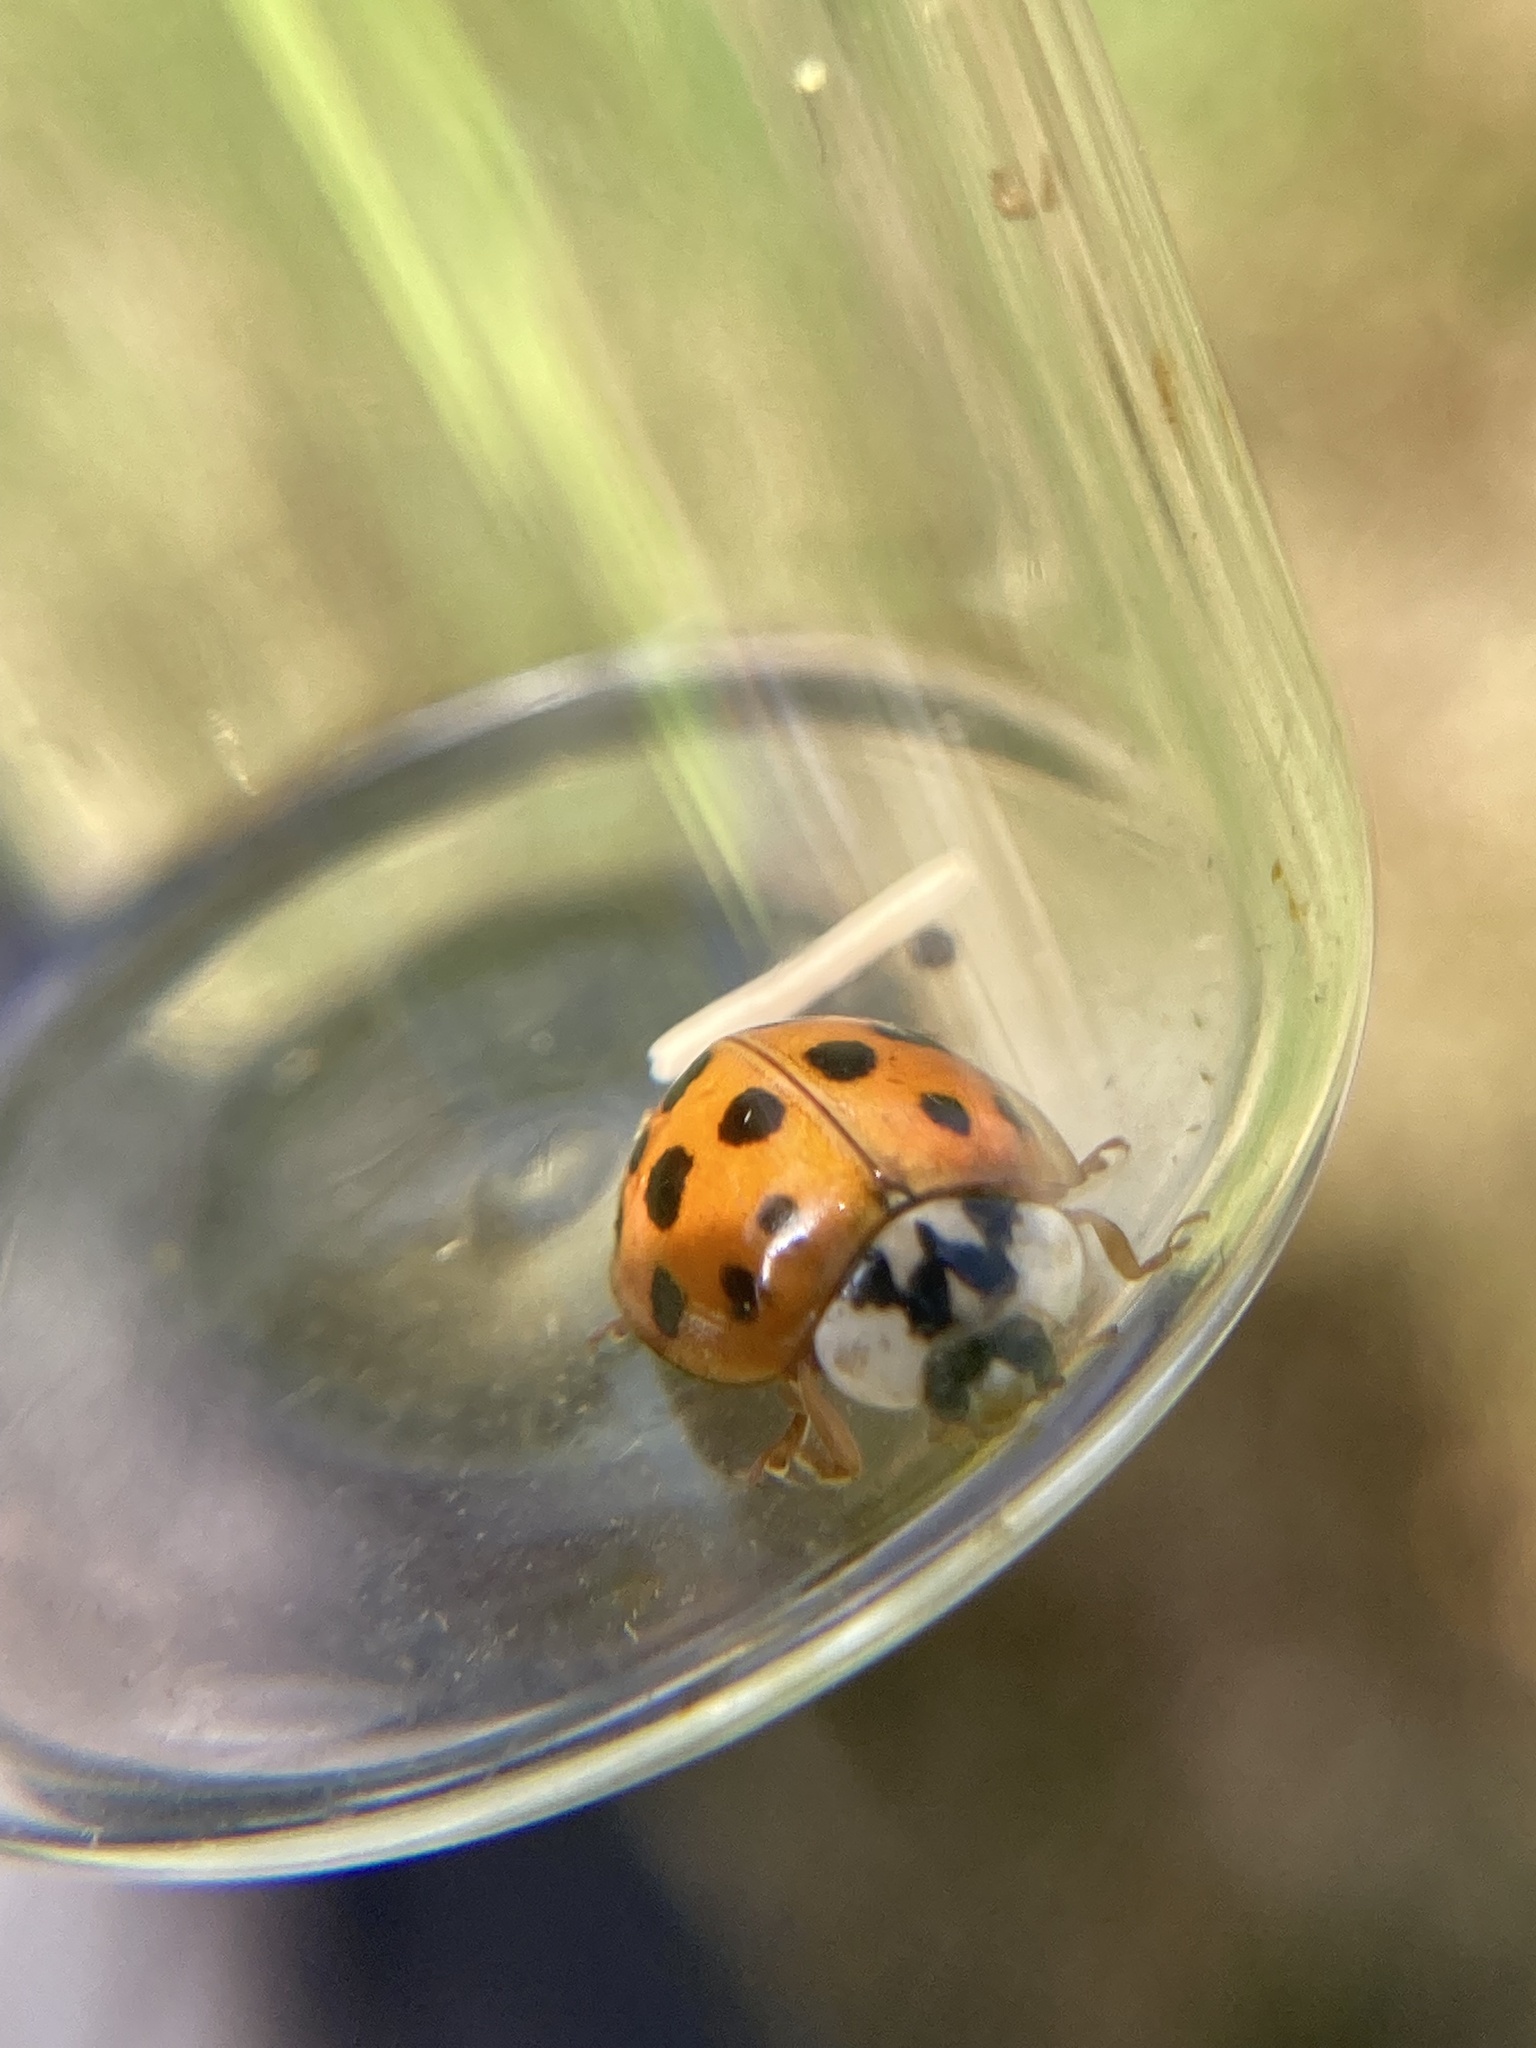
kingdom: Animalia
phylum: Arthropoda
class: Insecta
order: Coleoptera
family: Coccinellidae
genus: Harmonia
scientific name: Harmonia axyridis
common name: Harlequin ladybird
